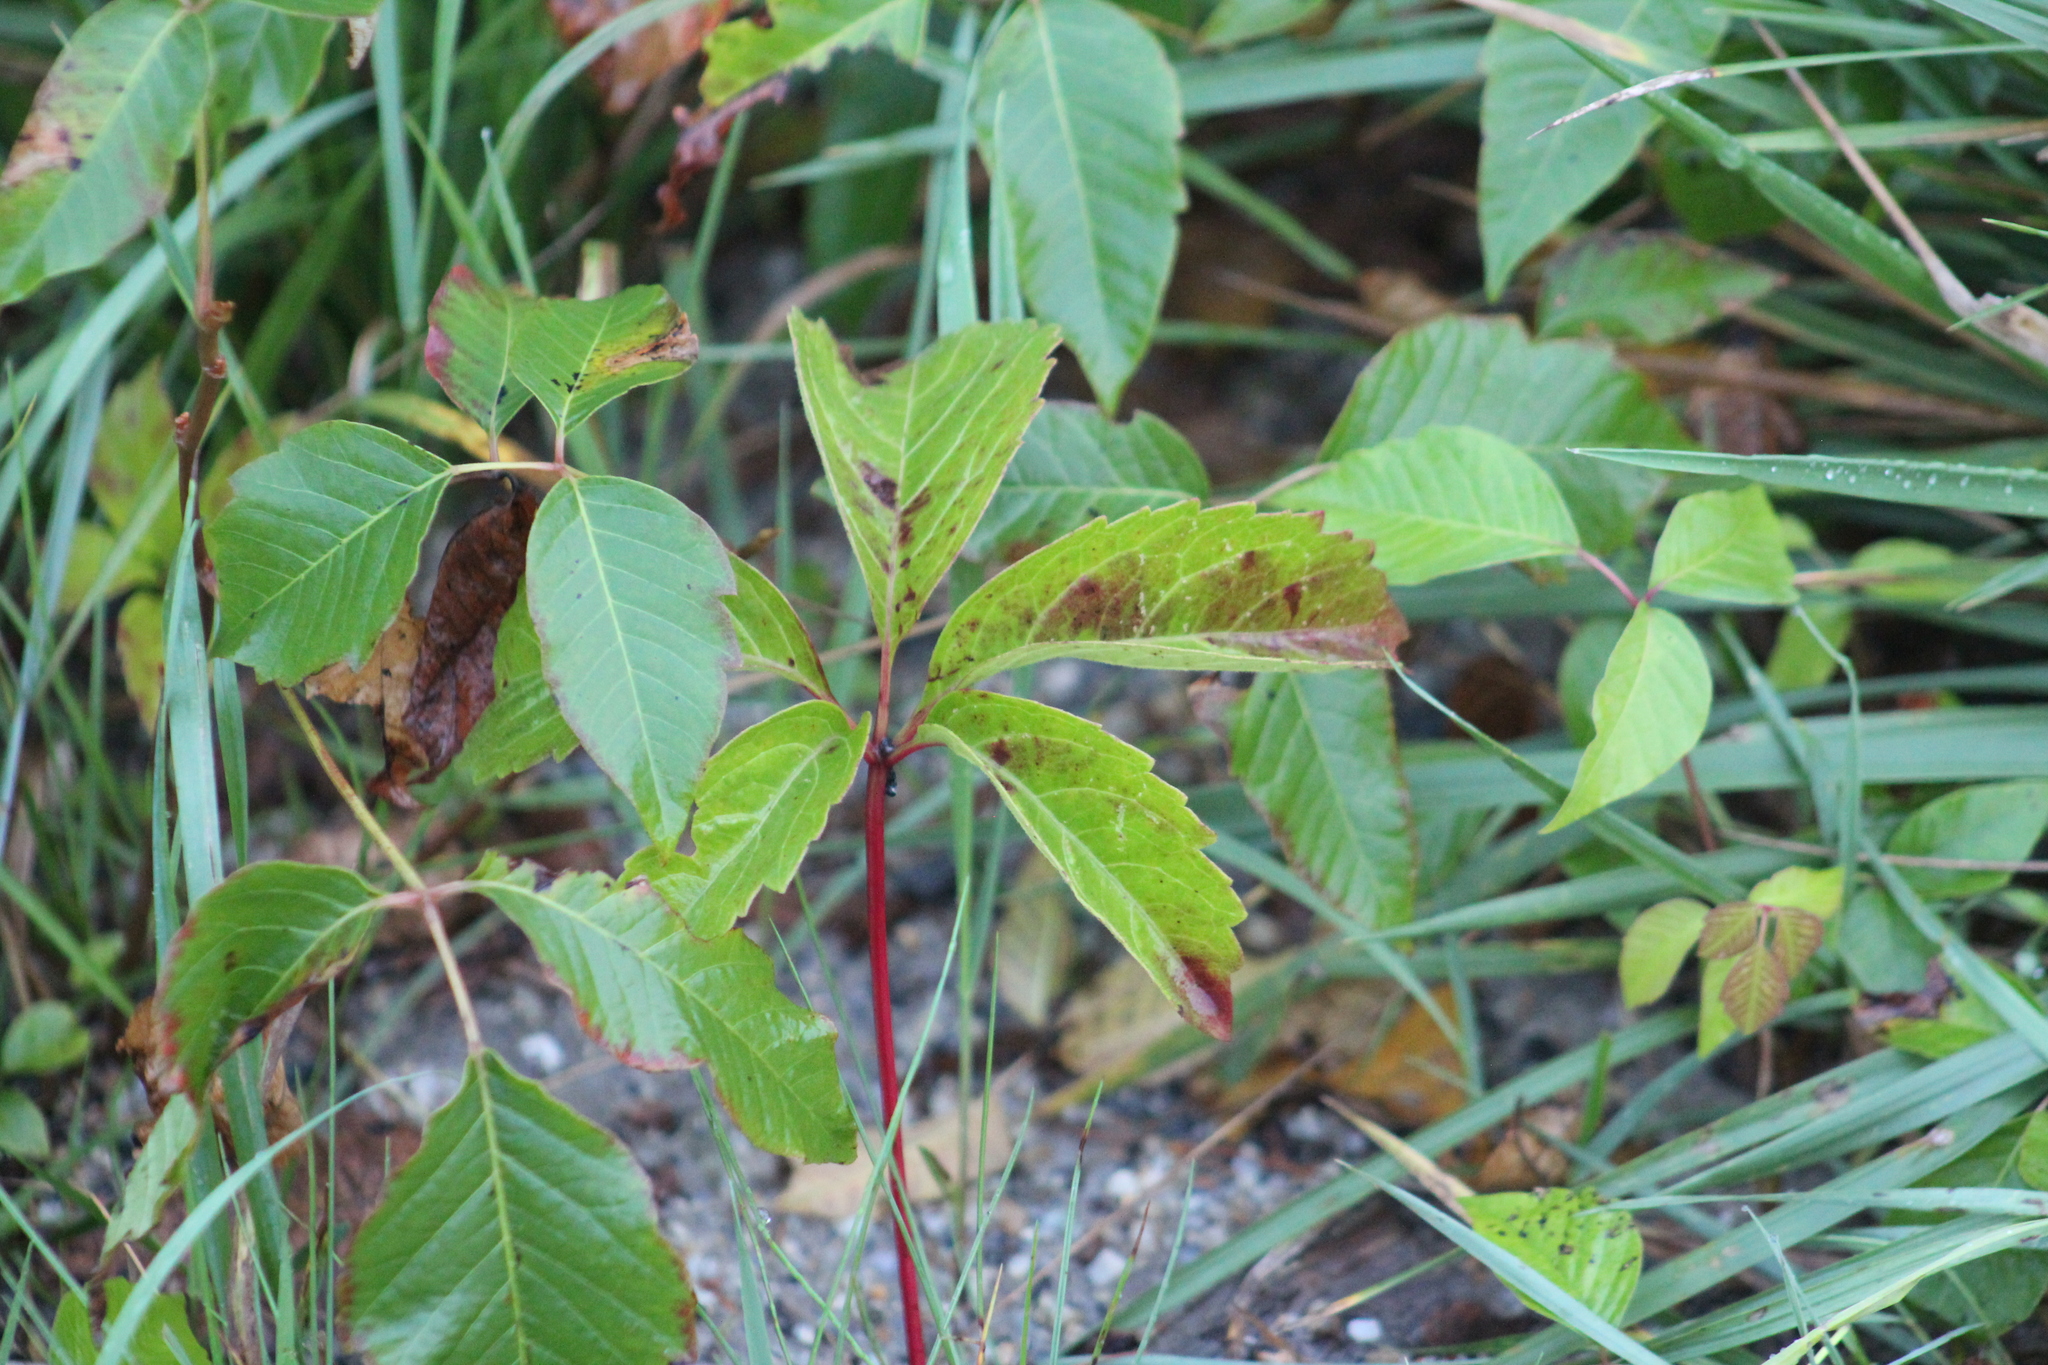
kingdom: Plantae
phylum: Tracheophyta
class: Magnoliopsida
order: Vitales
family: Vitaceae
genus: Parthenocissus
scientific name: Parthenocissus quinquefolia
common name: Virginia-creeper
